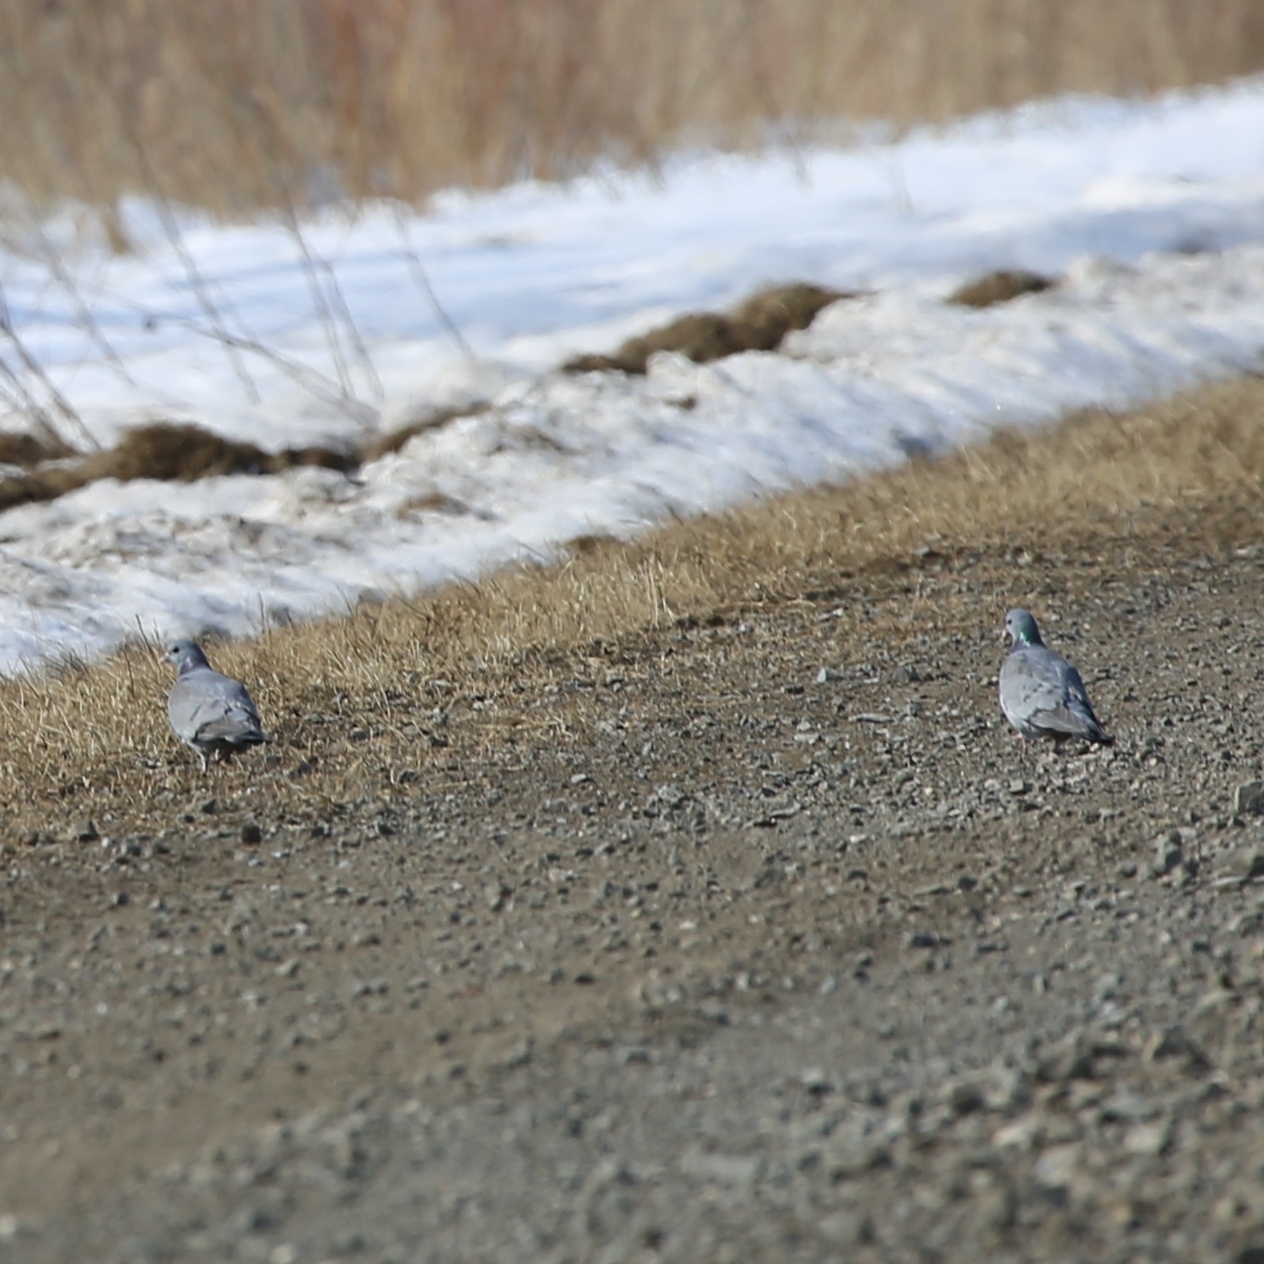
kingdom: Animalia
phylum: Chordata
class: Aves
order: Columbiformes
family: Columbidae
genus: Columba
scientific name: Columba oenas
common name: Stock dove
